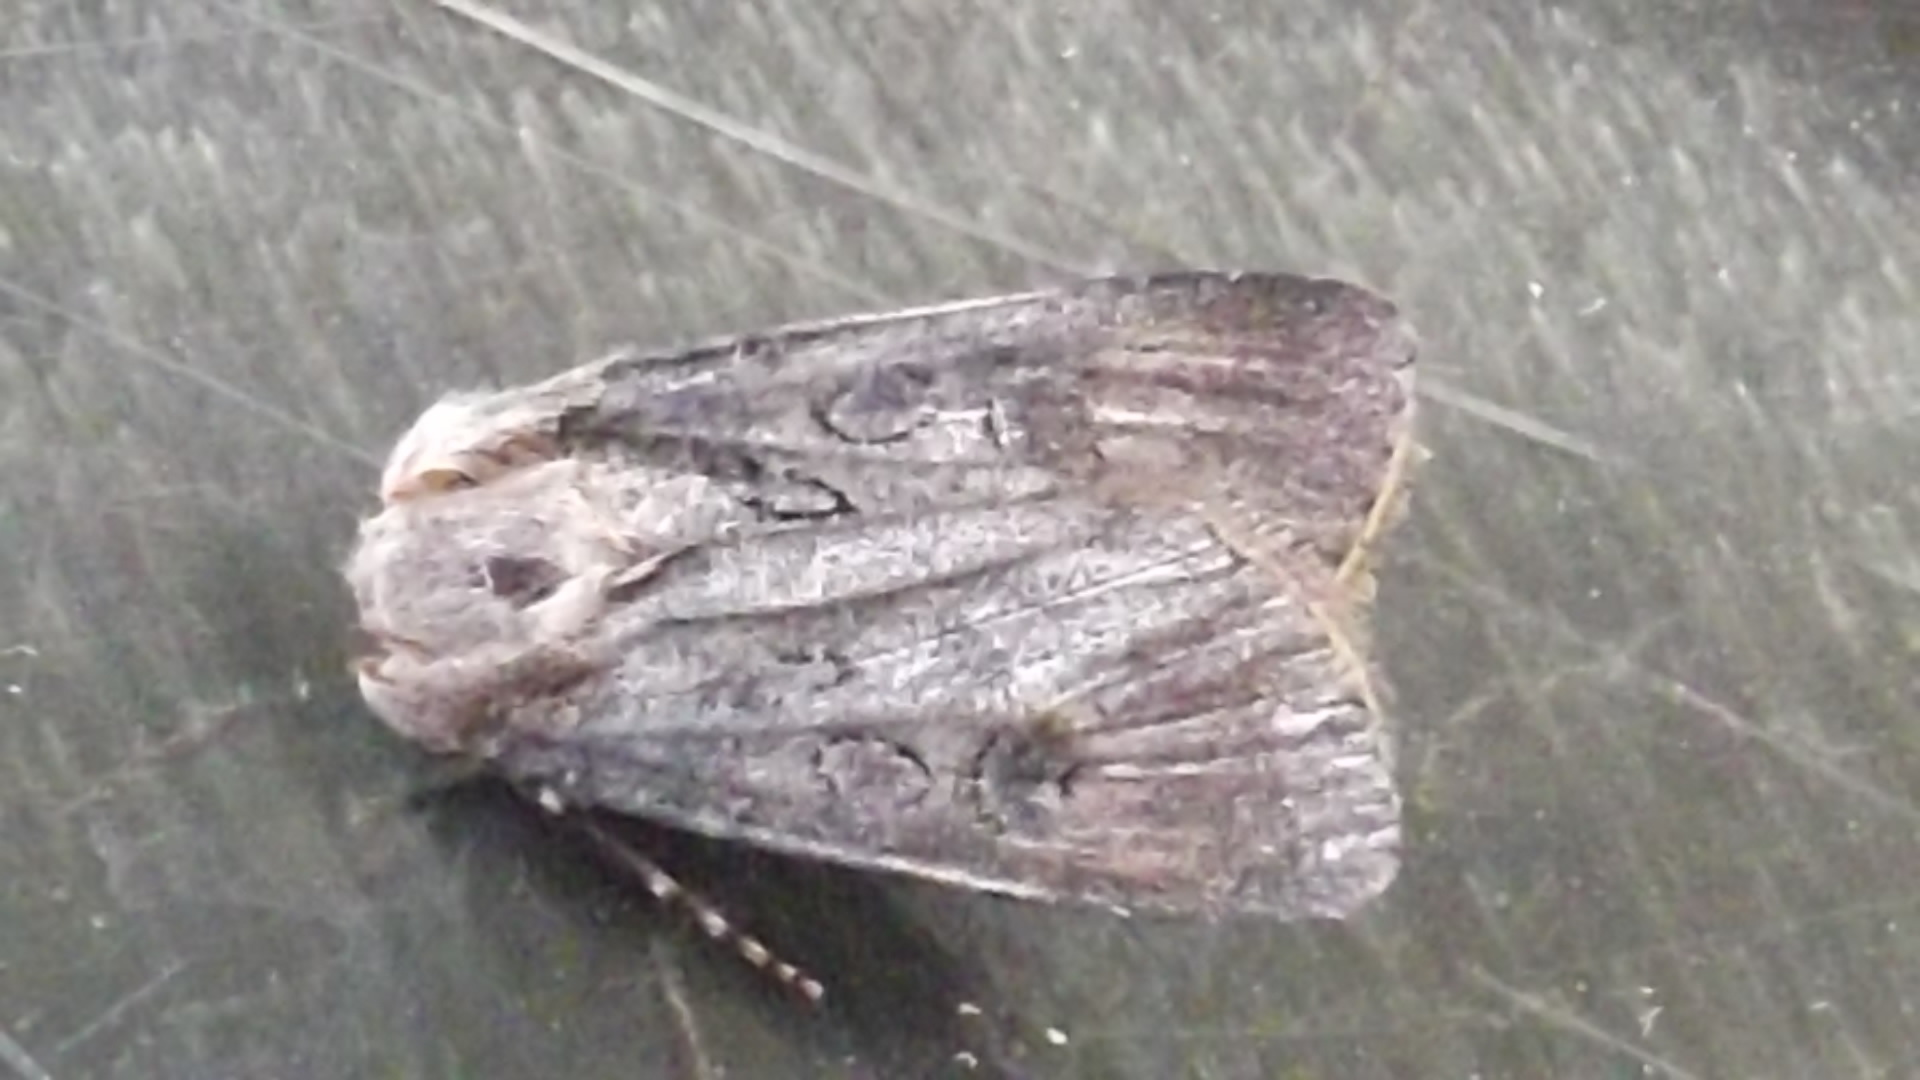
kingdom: Animalia
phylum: Arthropoda
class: Insecta
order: Lepidoptera
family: Noctuidae
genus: Agrotis
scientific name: Agrotis segetum
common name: Turnip moth
